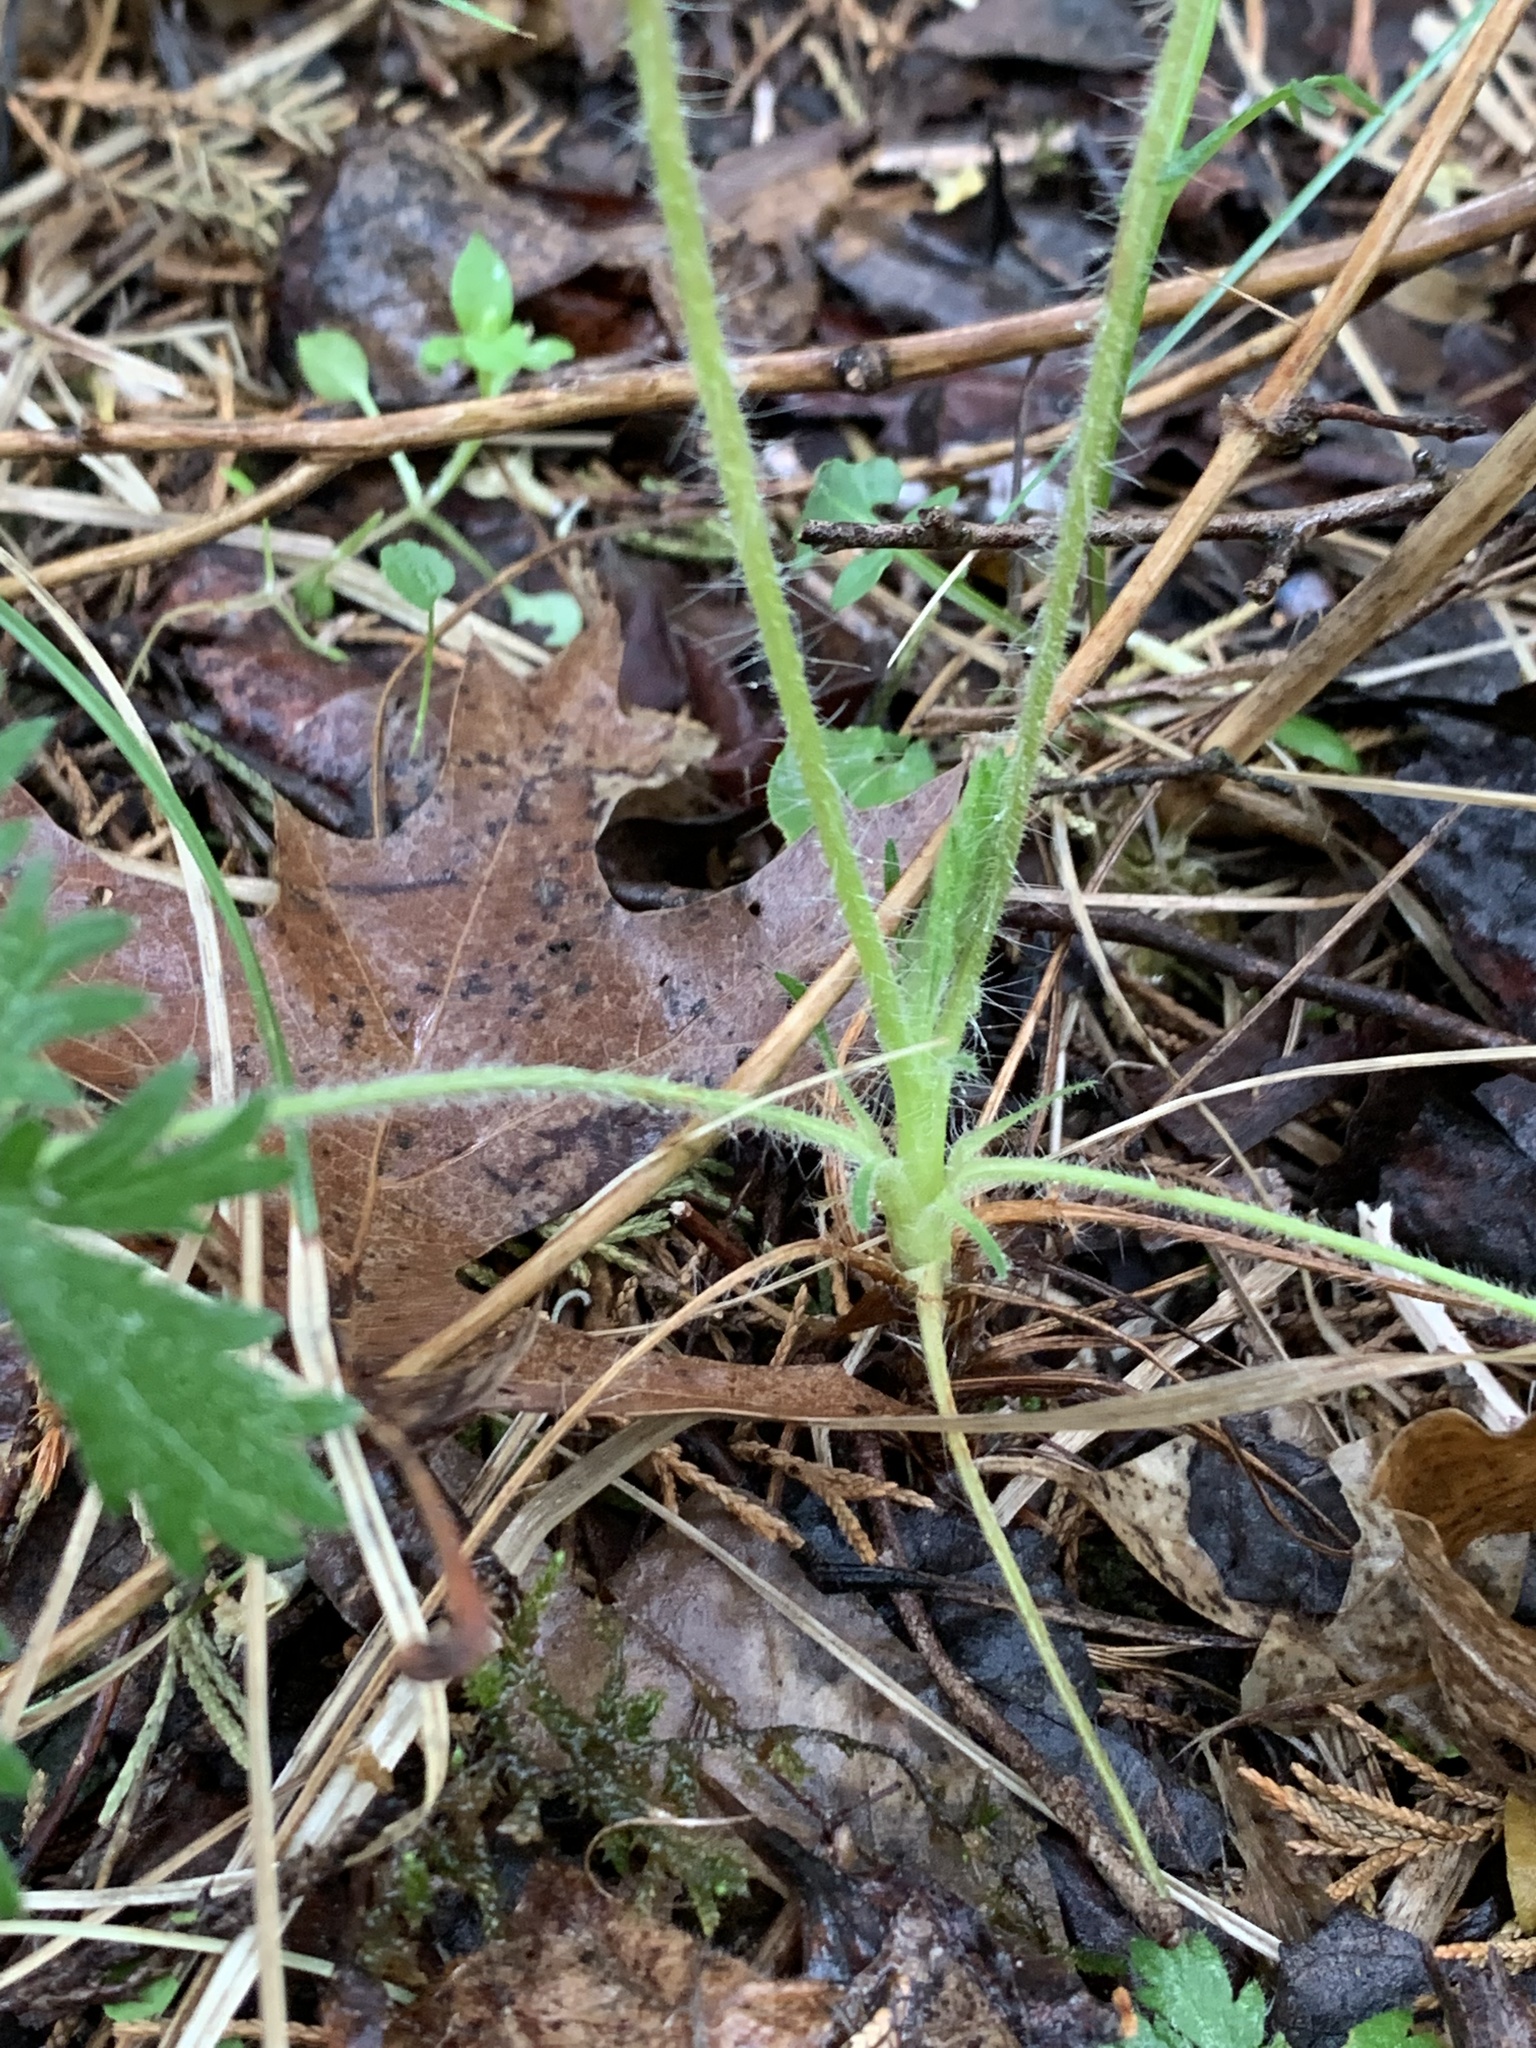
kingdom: Plantae
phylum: Tracheophyta
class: Magnoliopsida
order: Rosales
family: Rosaceae
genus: Potentilla
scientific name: Potentilla recta
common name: Sulphur cinquefoil
